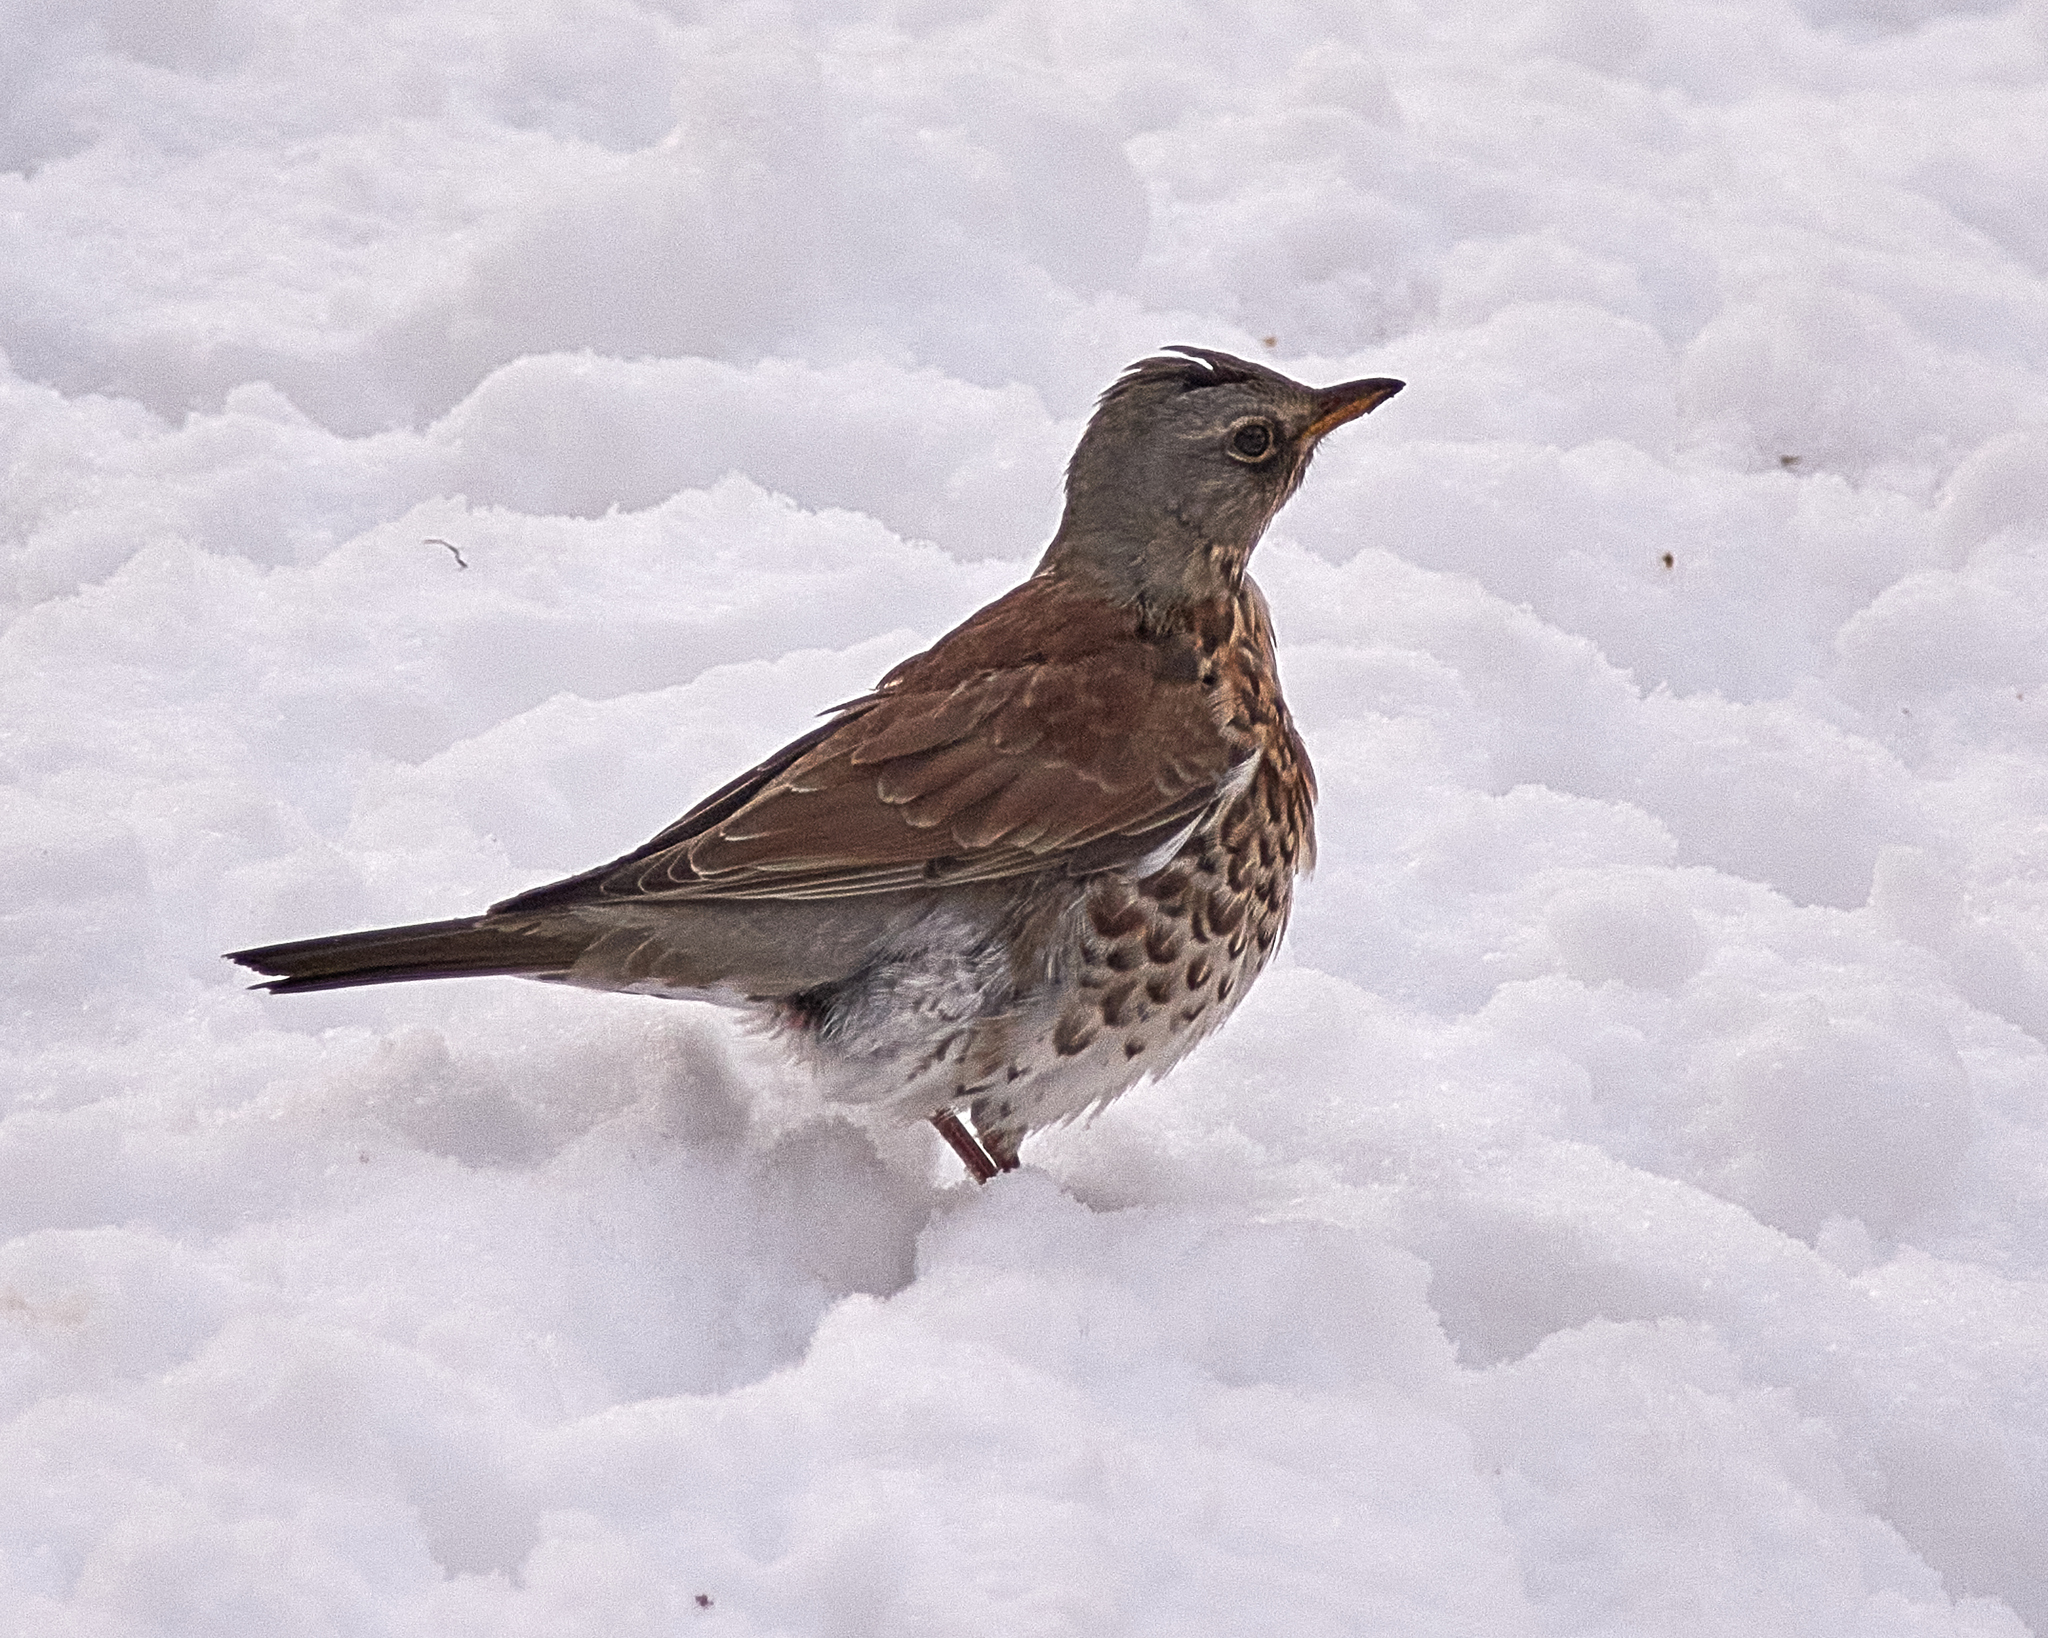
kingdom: Animalia
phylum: Chordata
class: Aves
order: Passeriformes
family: Turdidae
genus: Turdus
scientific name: Turdus pilaris
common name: Fieldfare
